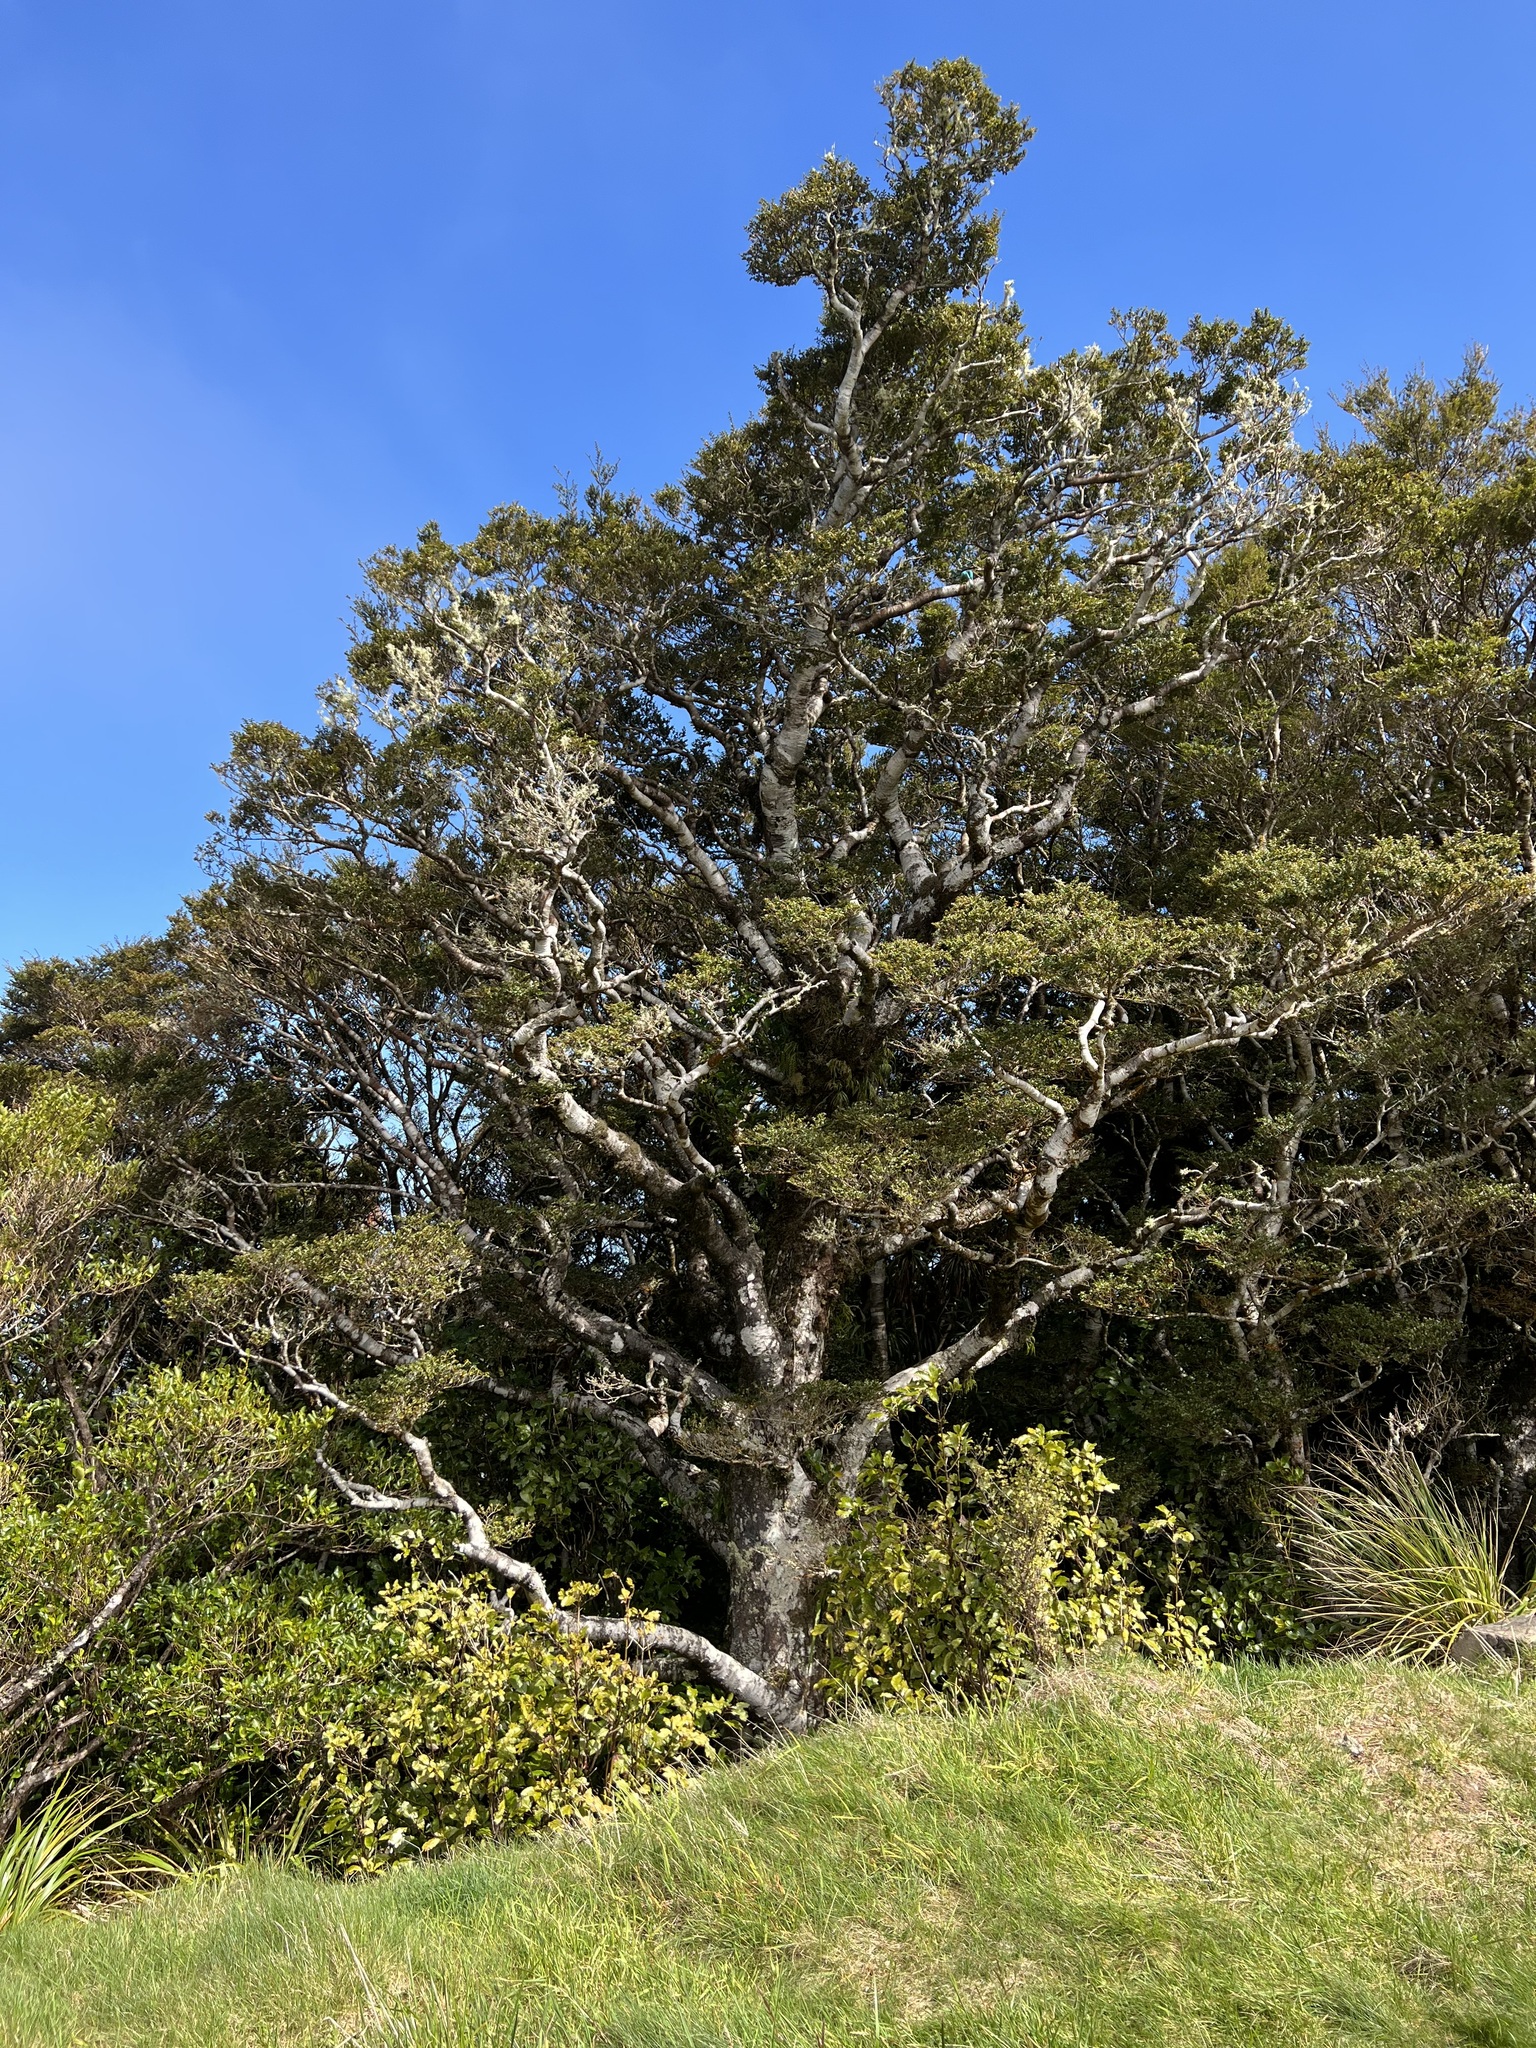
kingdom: Plantae
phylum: Tracheophyta
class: Magnoliopsida
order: Fagales
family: Nothofagaceae
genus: Nothofagus
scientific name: Nothofagus menziesii
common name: Silver beech
